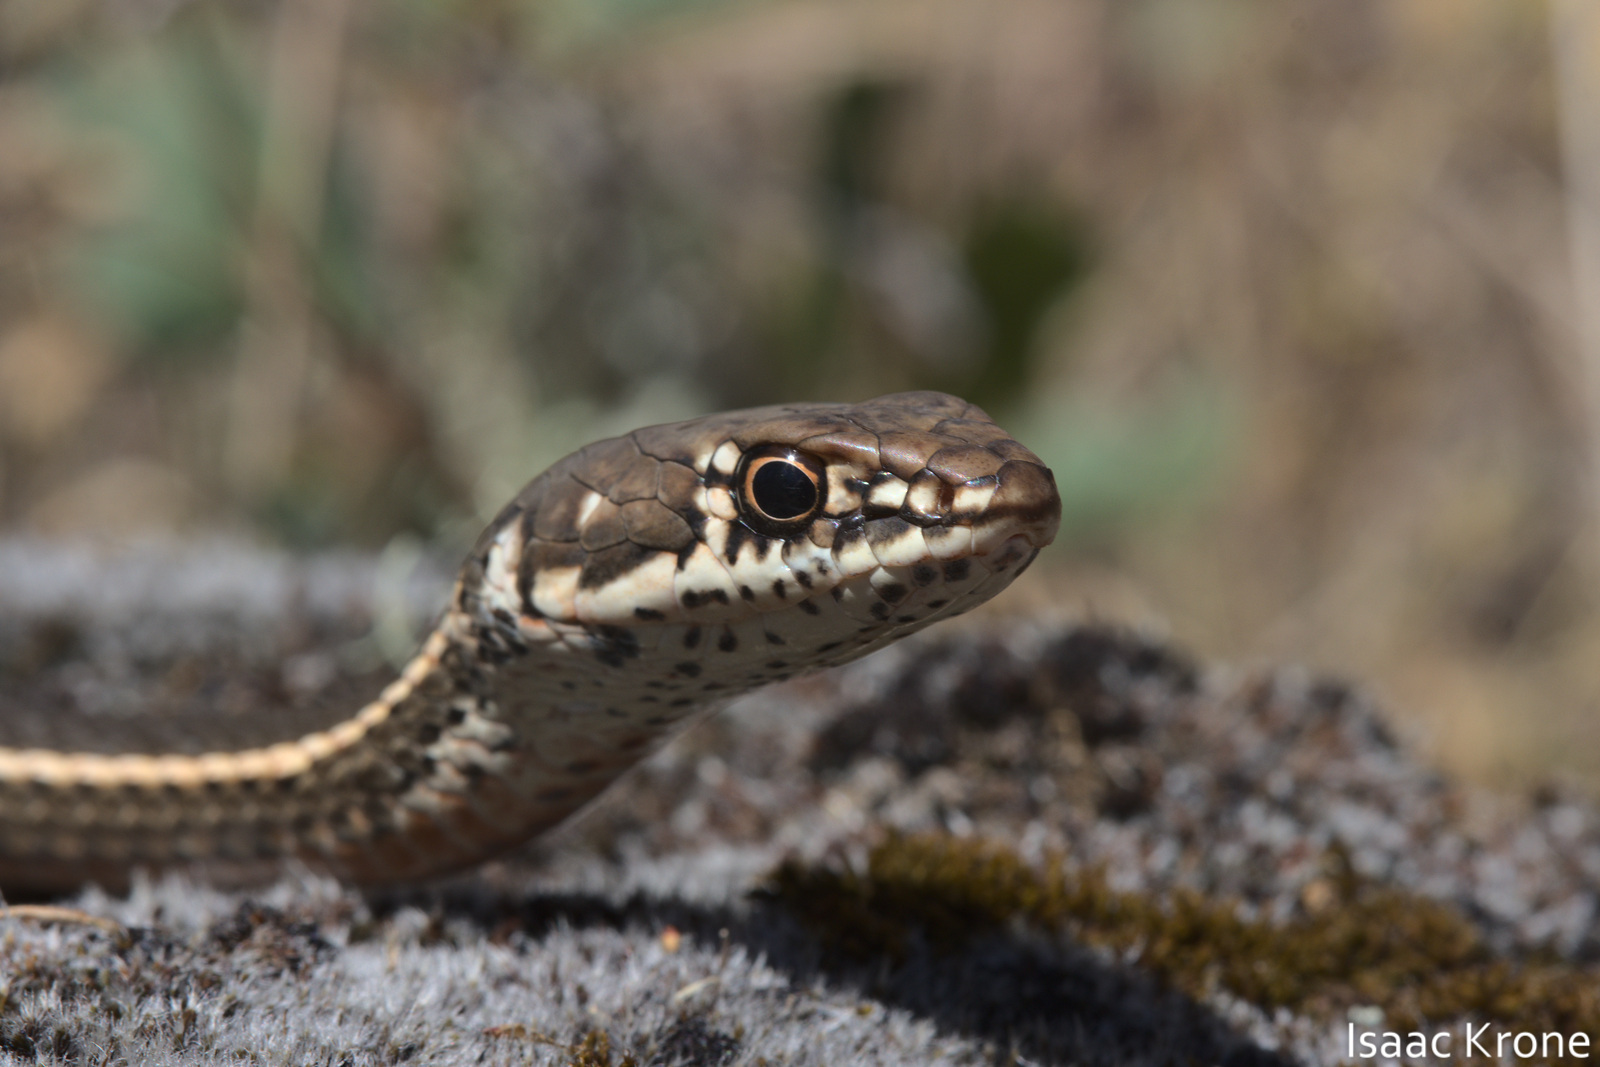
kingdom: Animalia
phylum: Chordata
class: Squamata
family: Colubridae
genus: Masticophis
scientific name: Masticophis lateralis
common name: Striped racer
